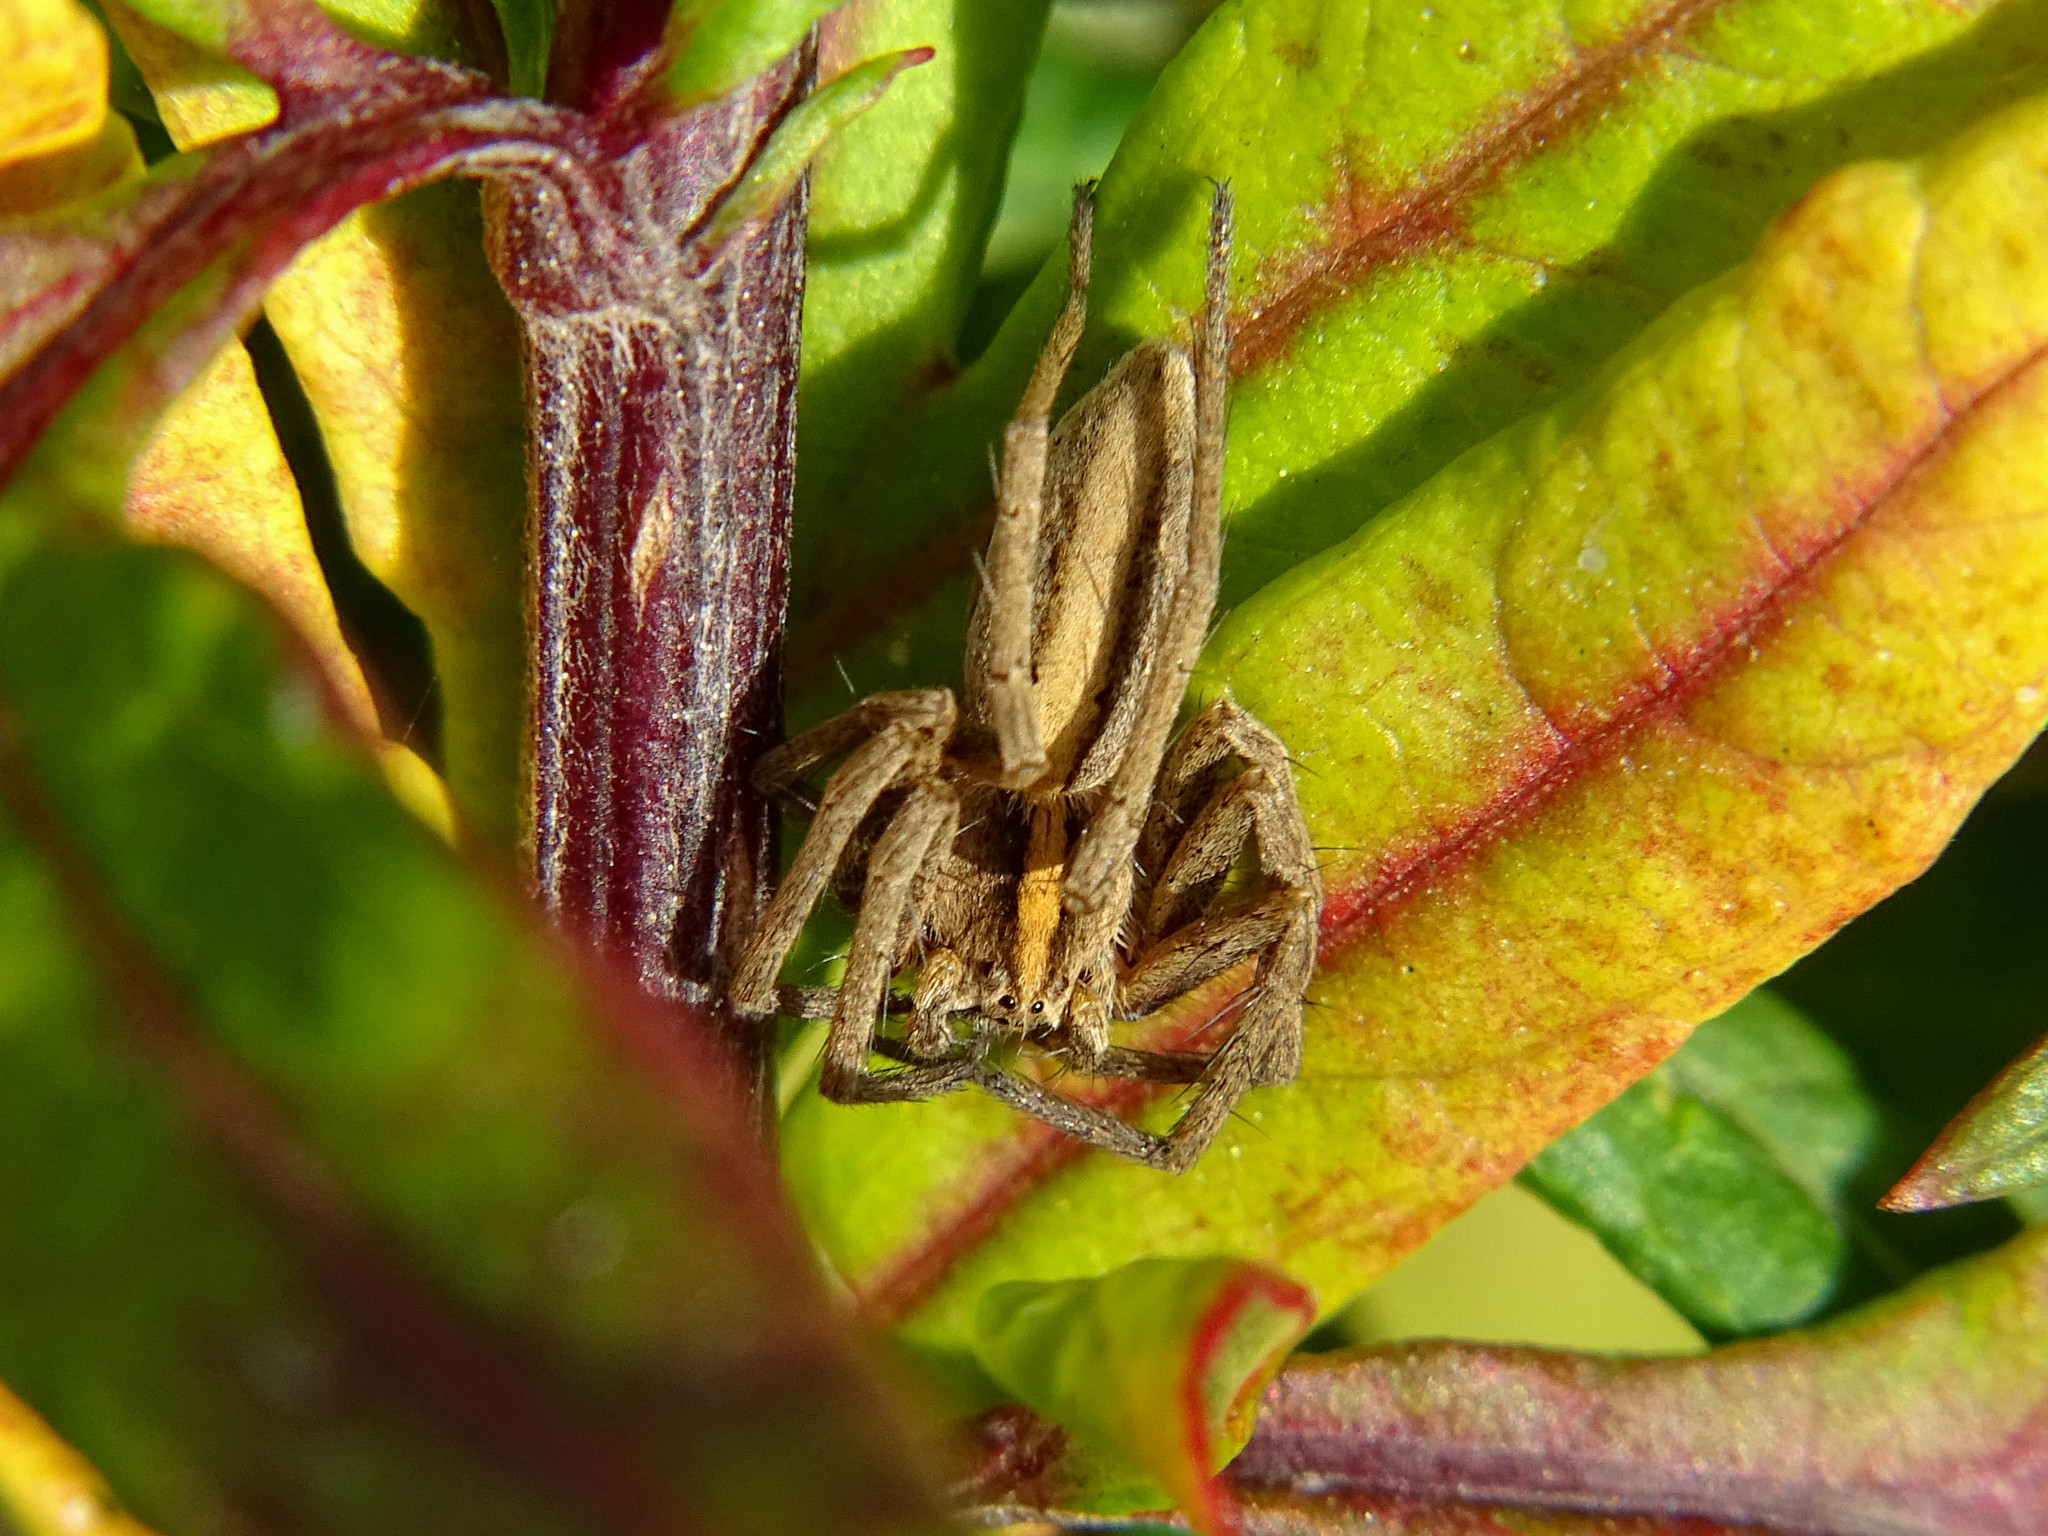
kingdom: Animalia
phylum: Arthropoda
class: Arachnida
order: Araneae
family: Pisauridae
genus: Pisaura
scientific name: Pisaura mirabilis
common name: Tent spider
